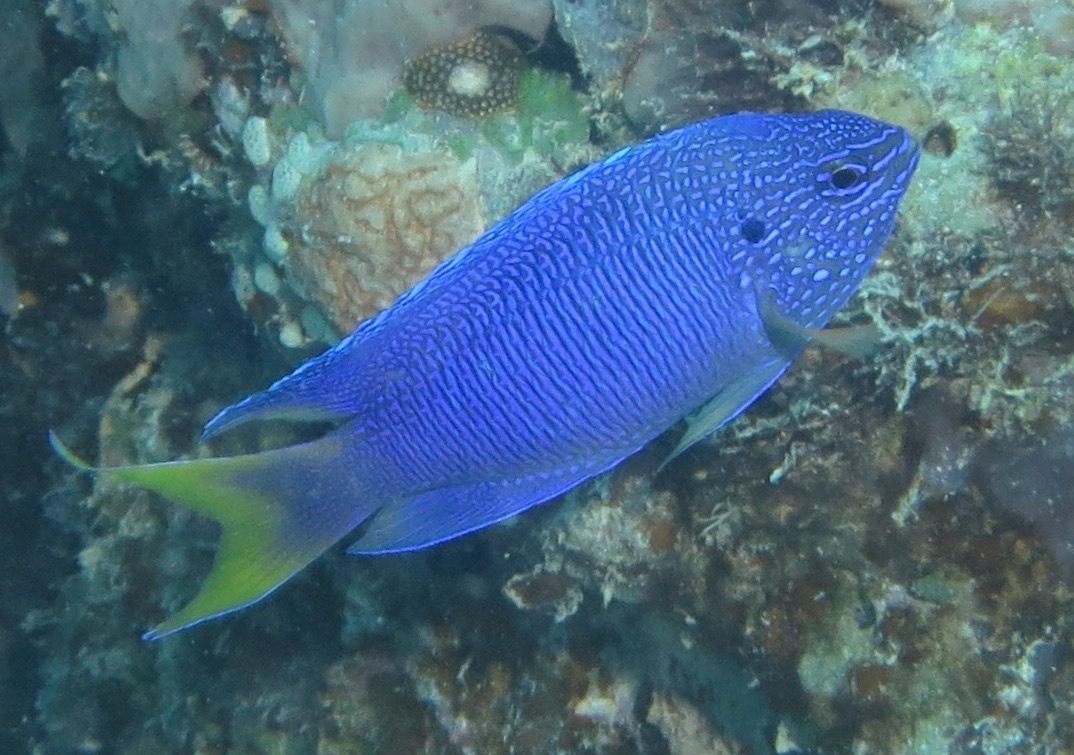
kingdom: Animalia
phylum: Chordata
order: Perciformes
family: Pomacentridae
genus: Pomacentrus
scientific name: Pomacentrus pavo
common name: Sapphire damsel
